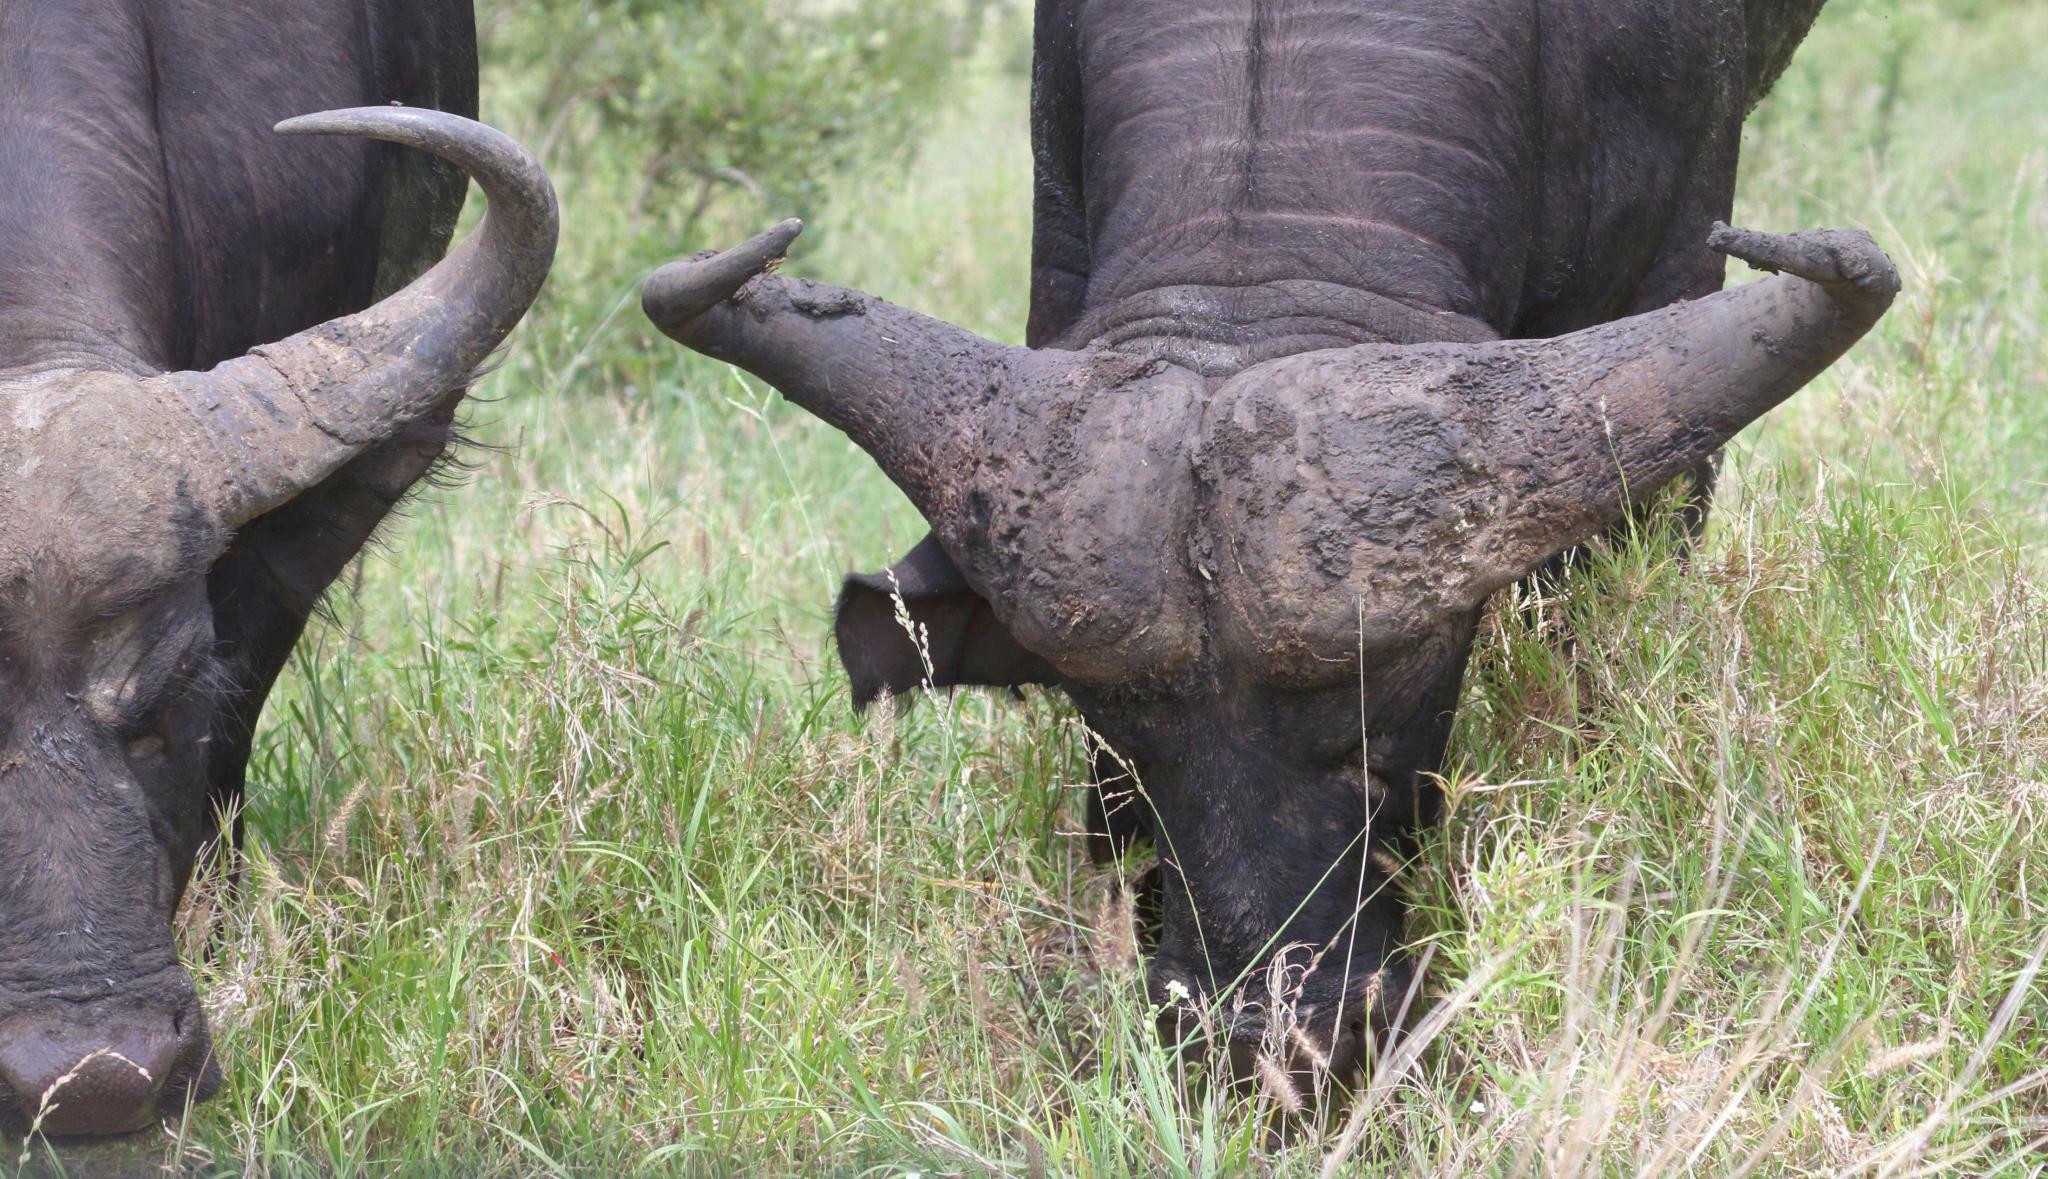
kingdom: Animalia
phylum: Chordata
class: Mammalia
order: Artiodactyla
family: Bovidae
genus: Syncerus
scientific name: Syncerus caffer
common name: African buffalo
